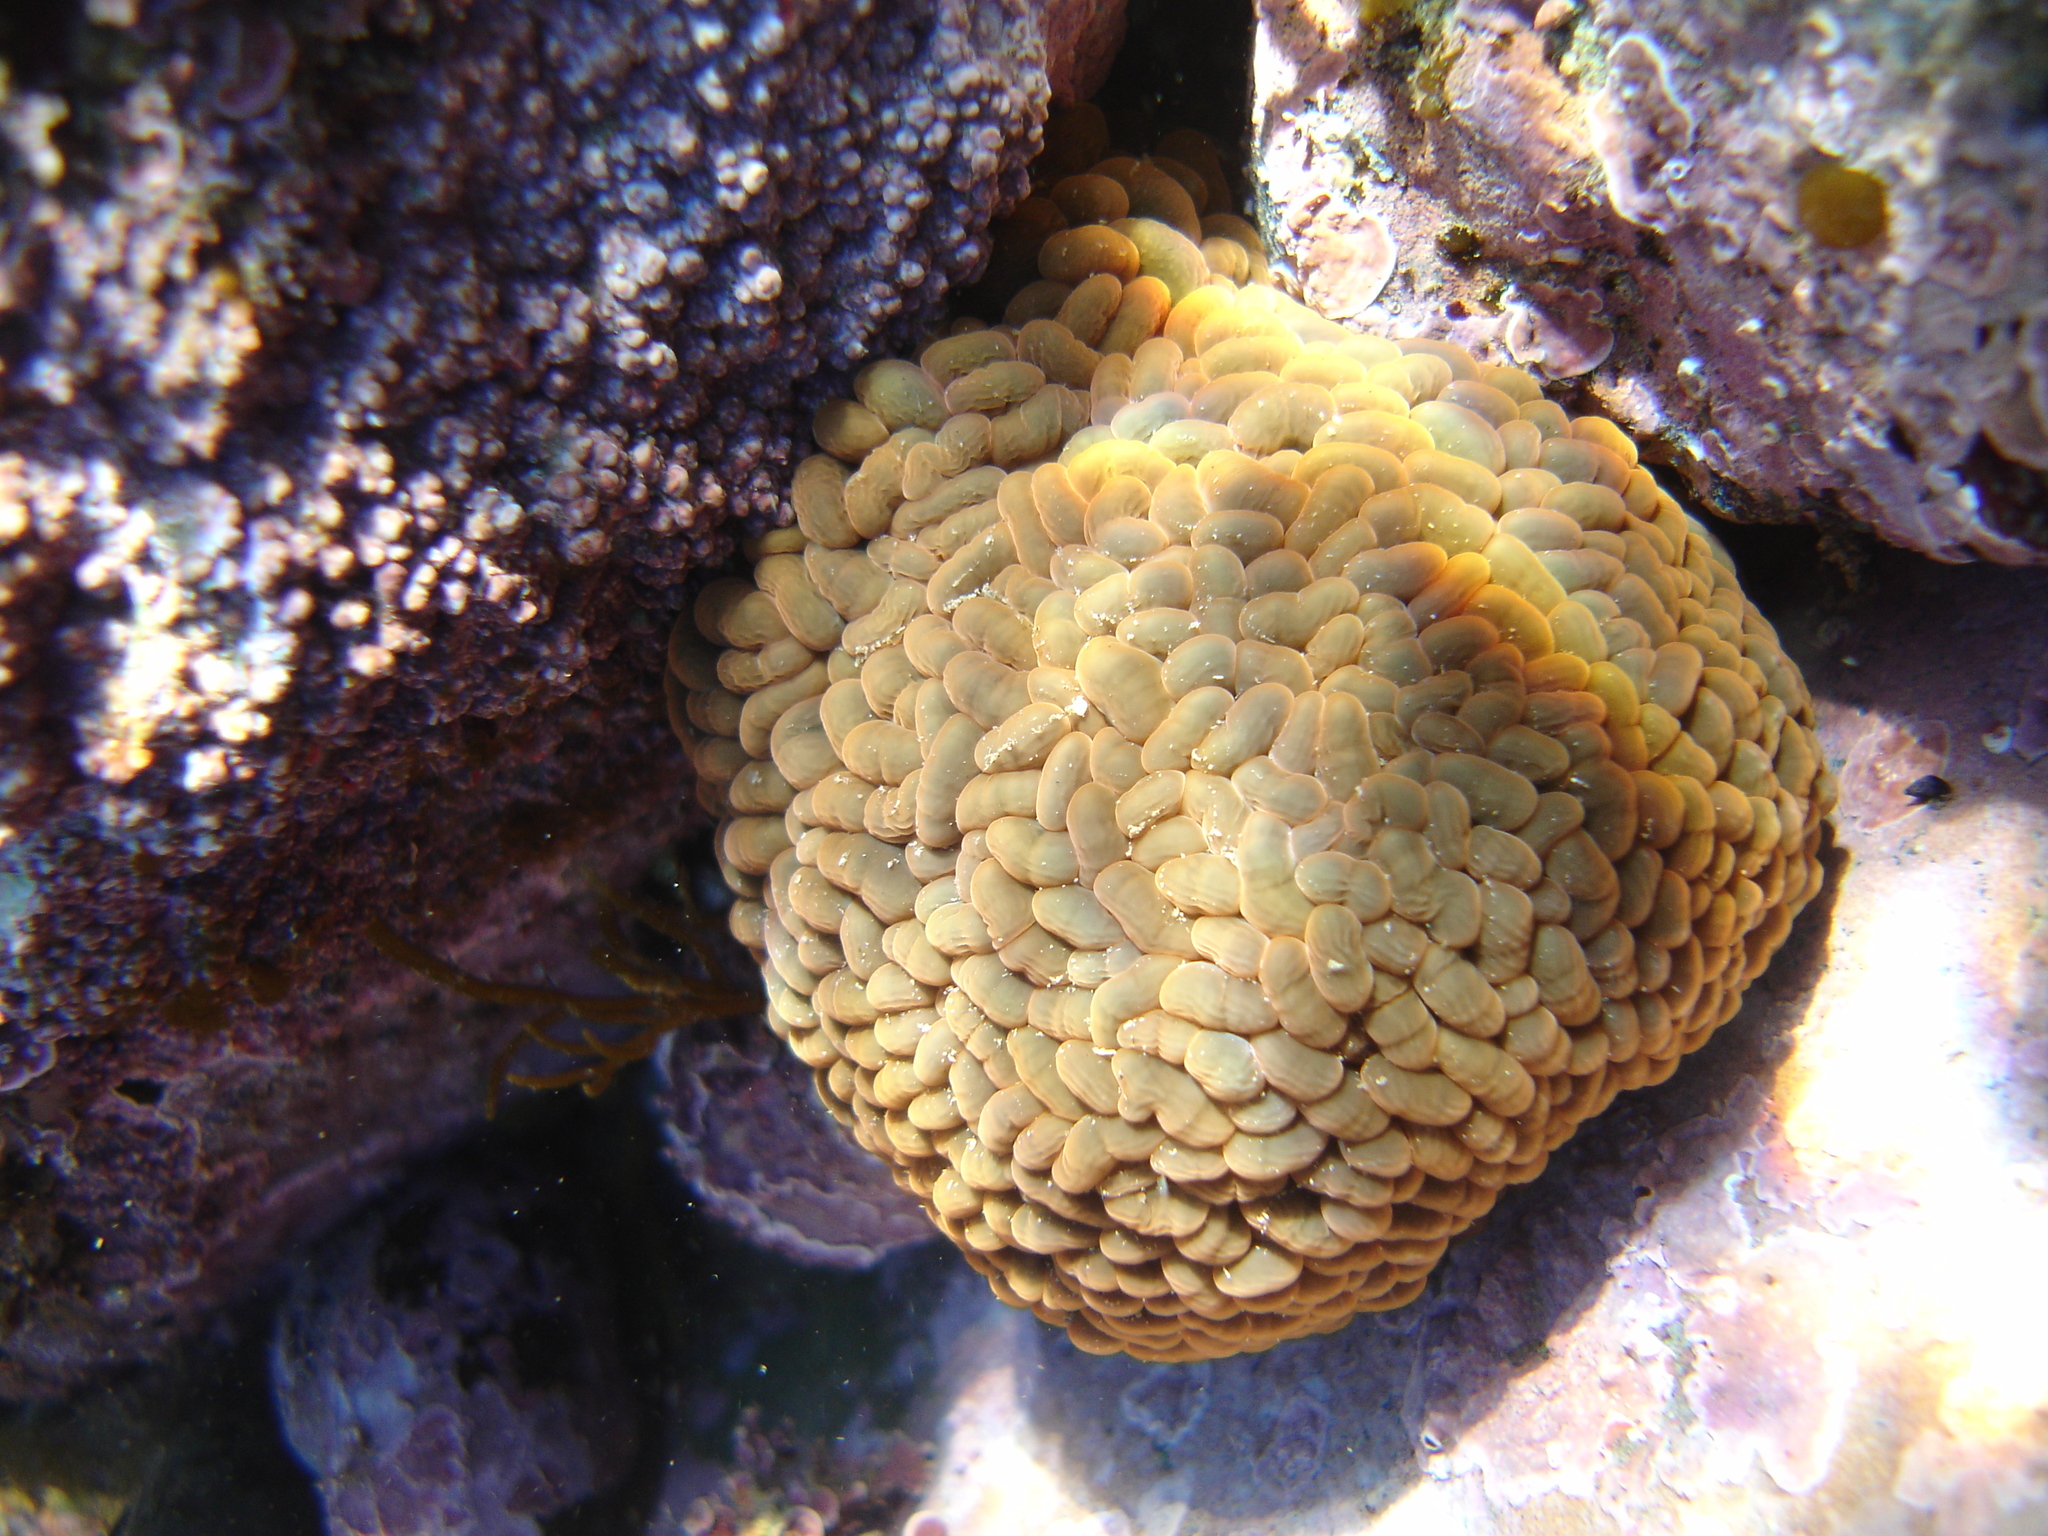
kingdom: Animalia
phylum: Cnidaria
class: Anthozoa
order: Actiniaria
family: Actiniidae
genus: Phlyctenactis
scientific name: Phlyctenactis tuberculosa
